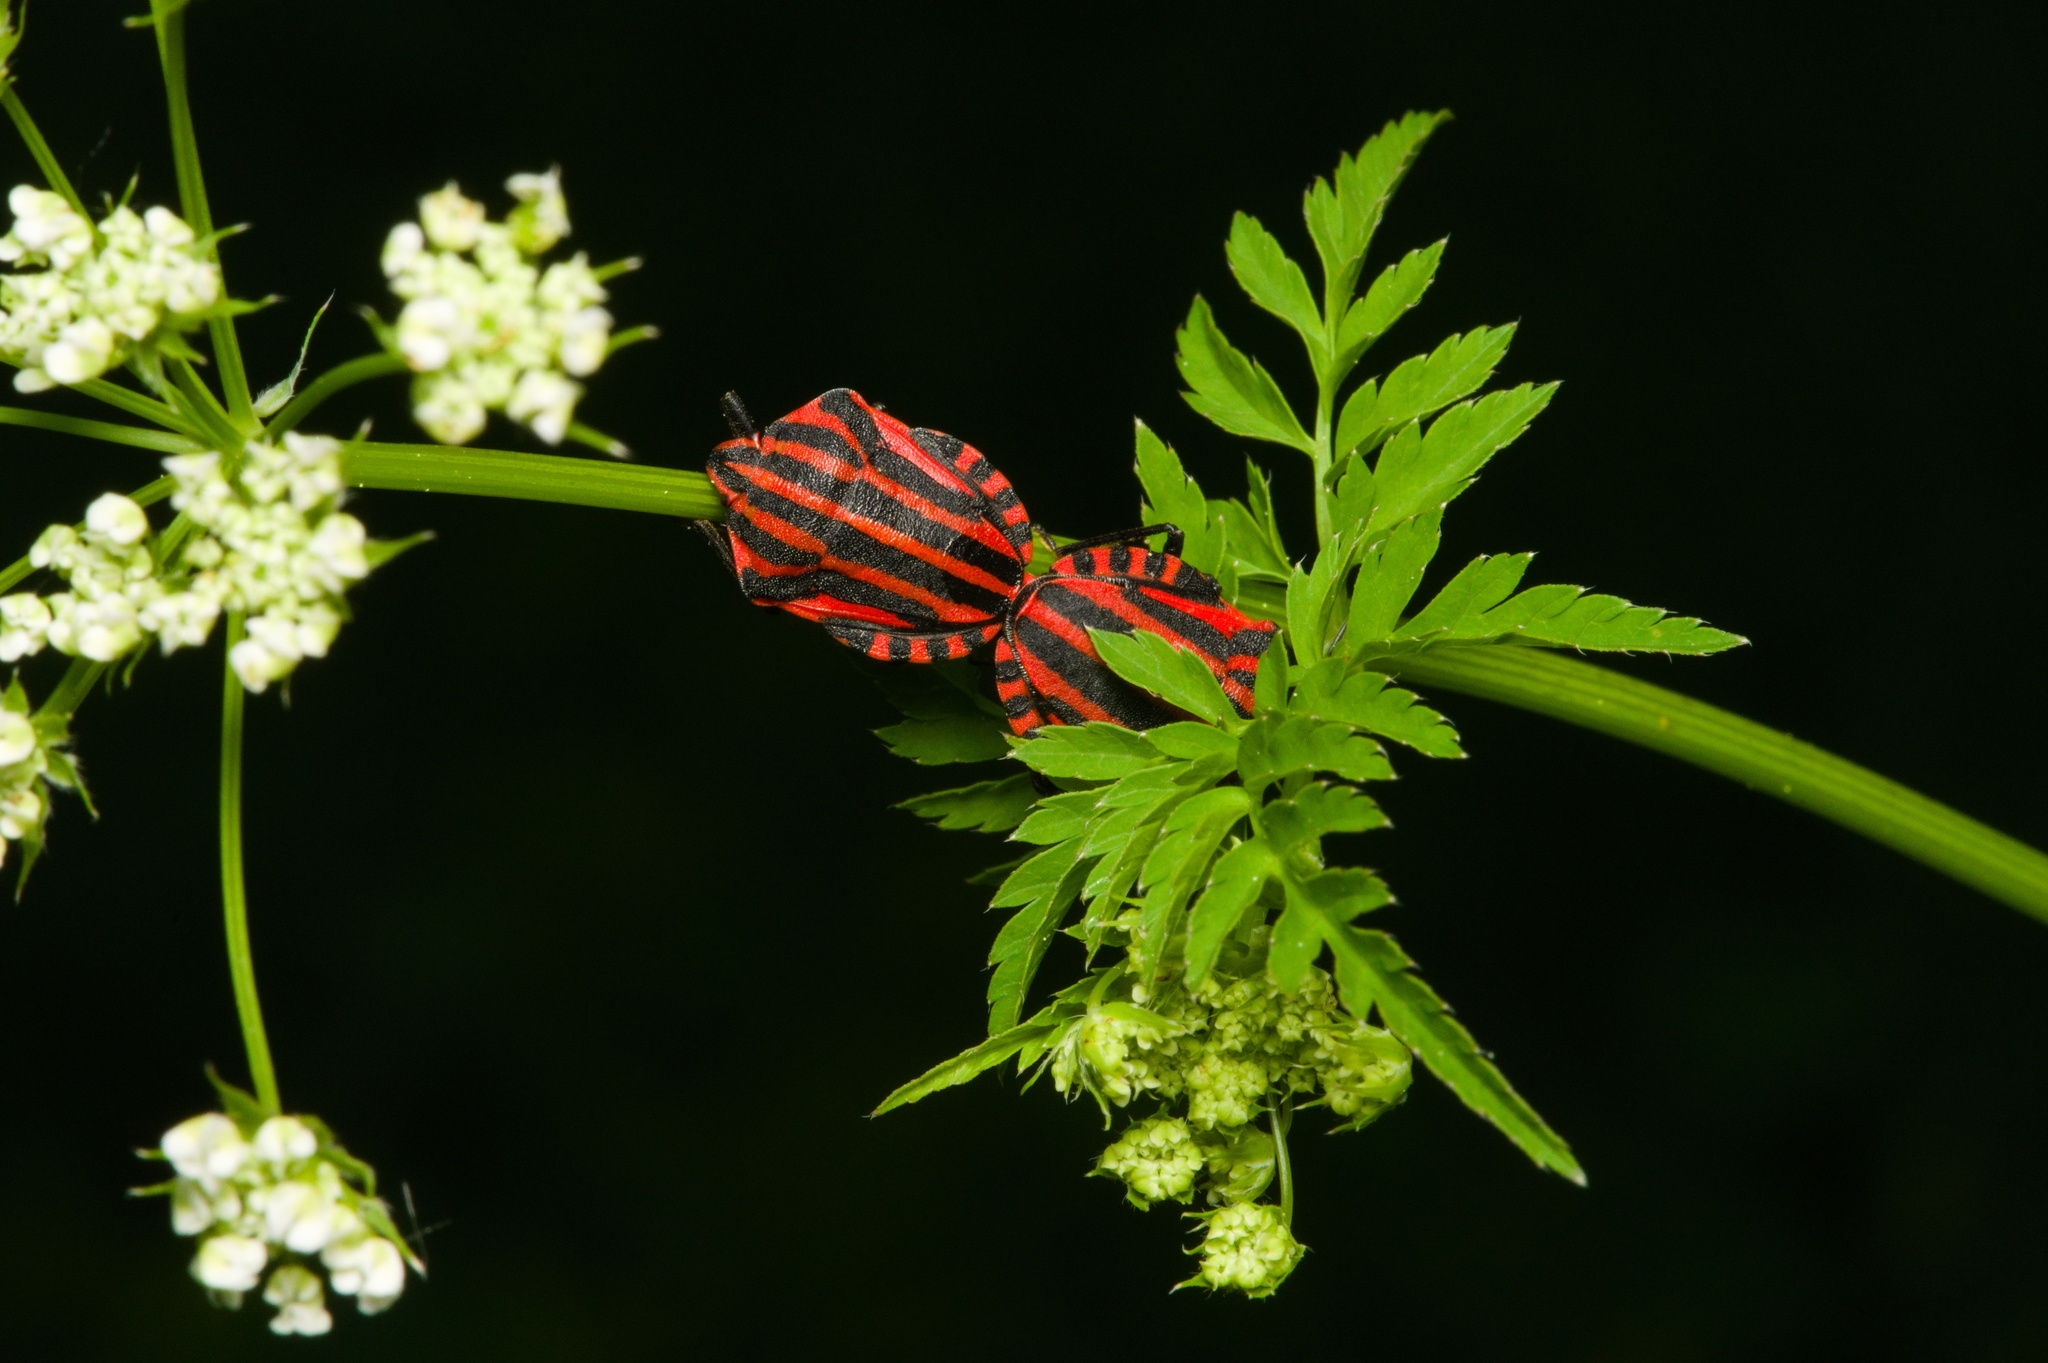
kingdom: Animalia
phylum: Arthropoda
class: Insecta
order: Hemiptera
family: Pentatomidae
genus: Graphosoma
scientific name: Graphosoma italicum
